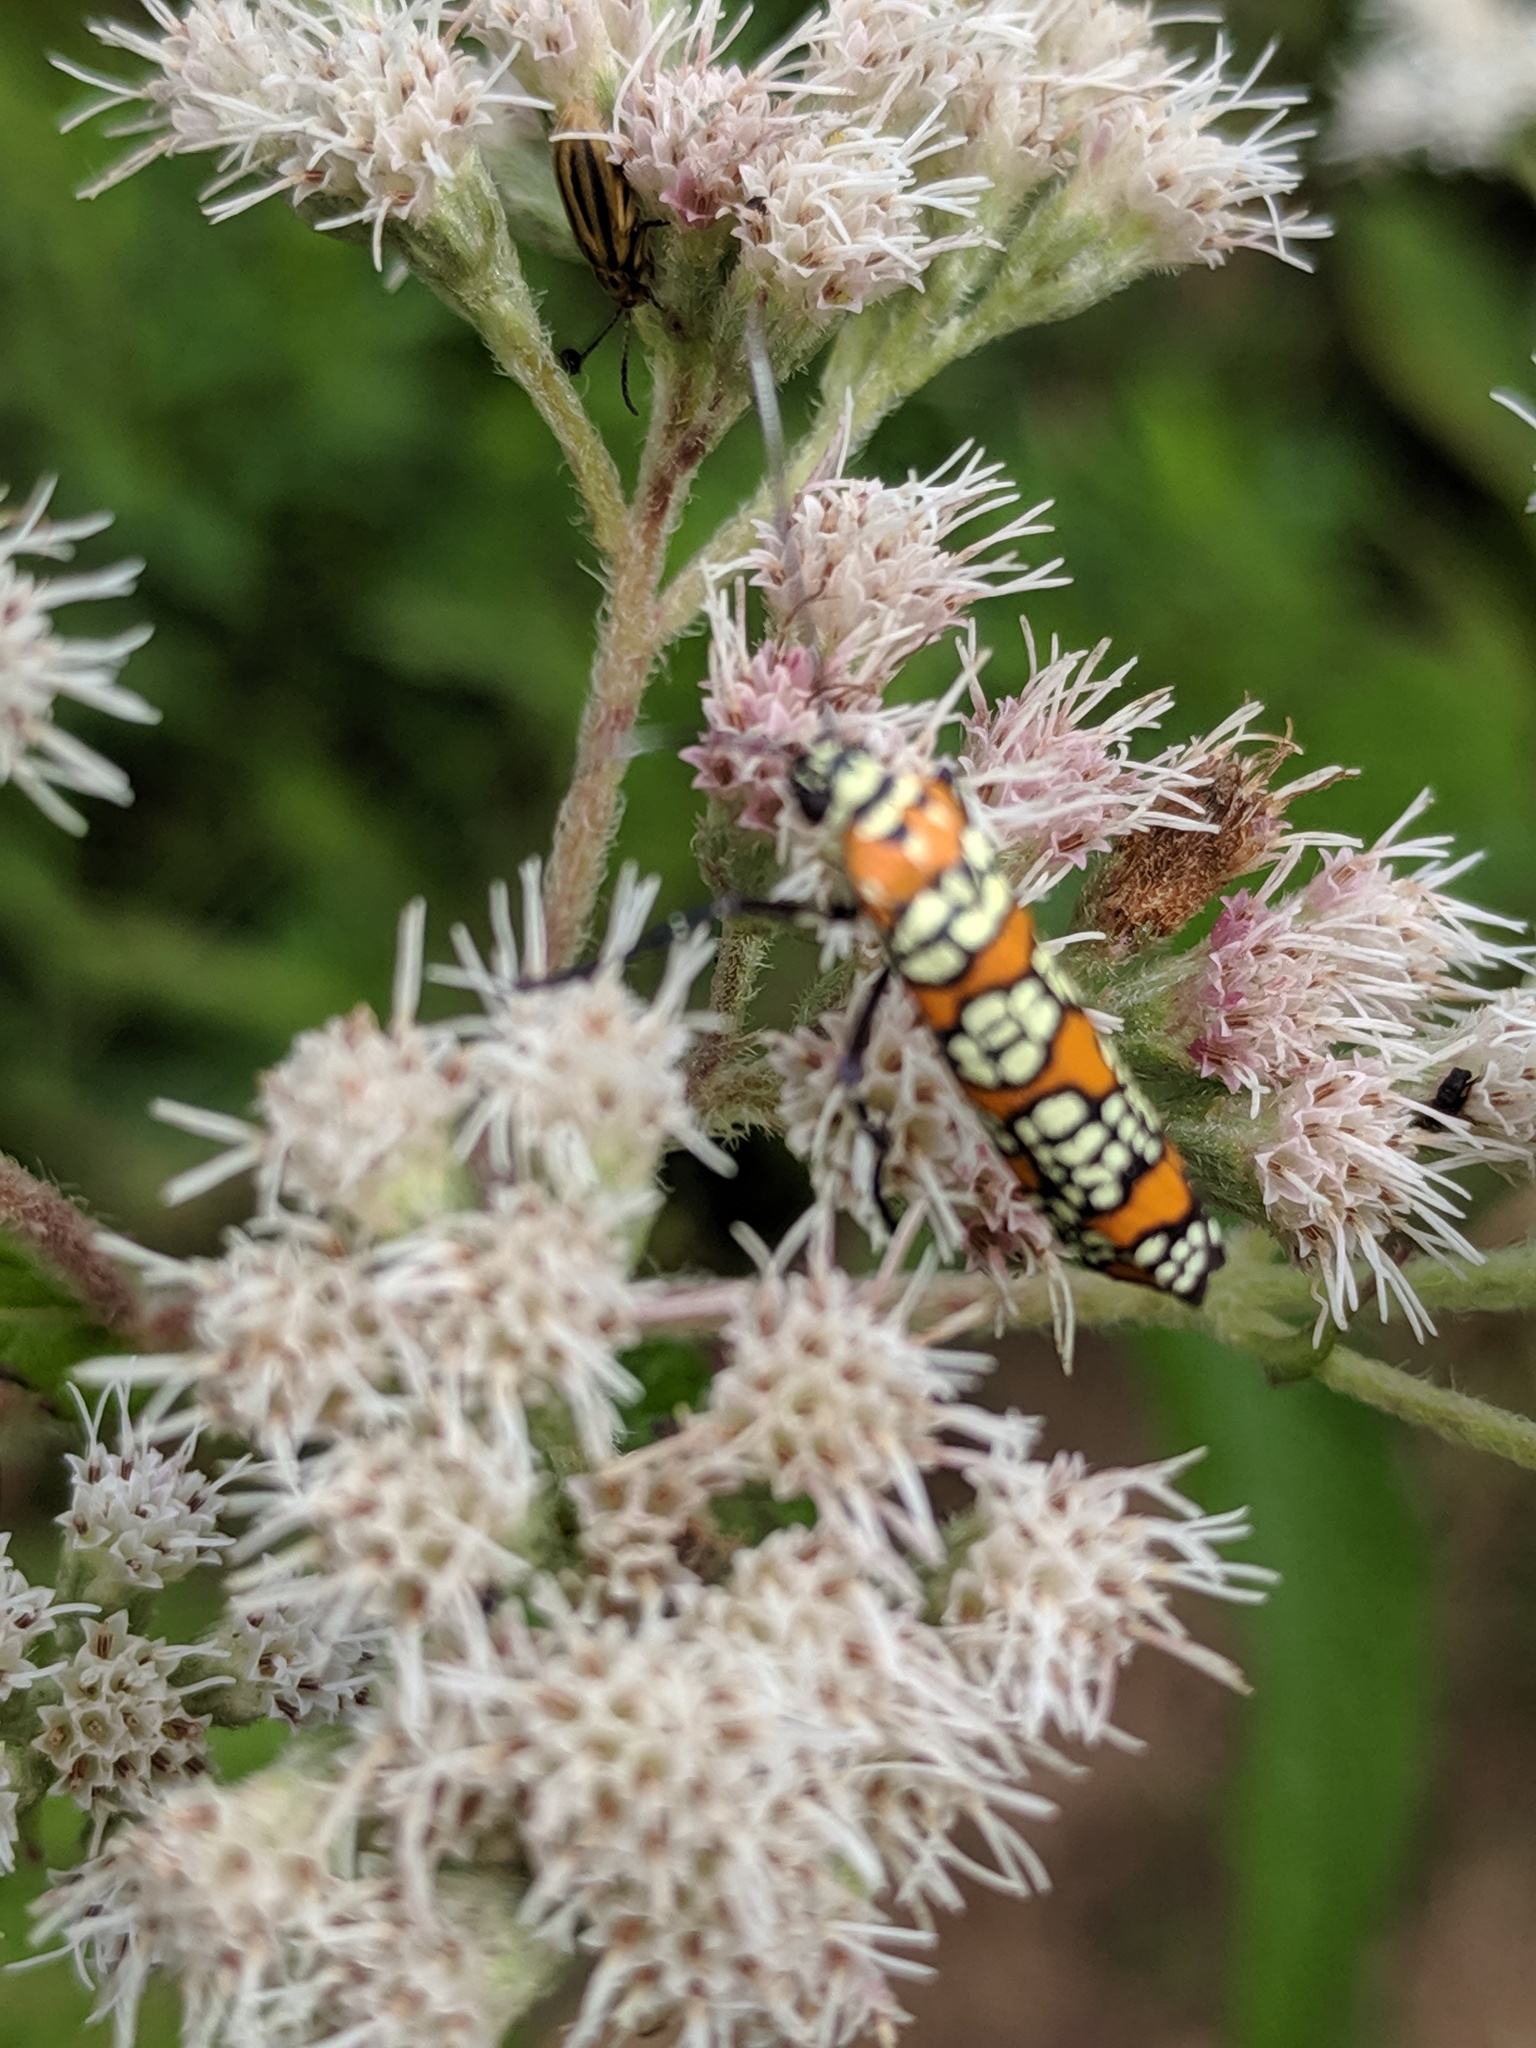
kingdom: Animalia
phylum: Arthropoda
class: Insecta
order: Lepidoptera
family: Attevidae
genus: Atteva
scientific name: Atteva punctella
